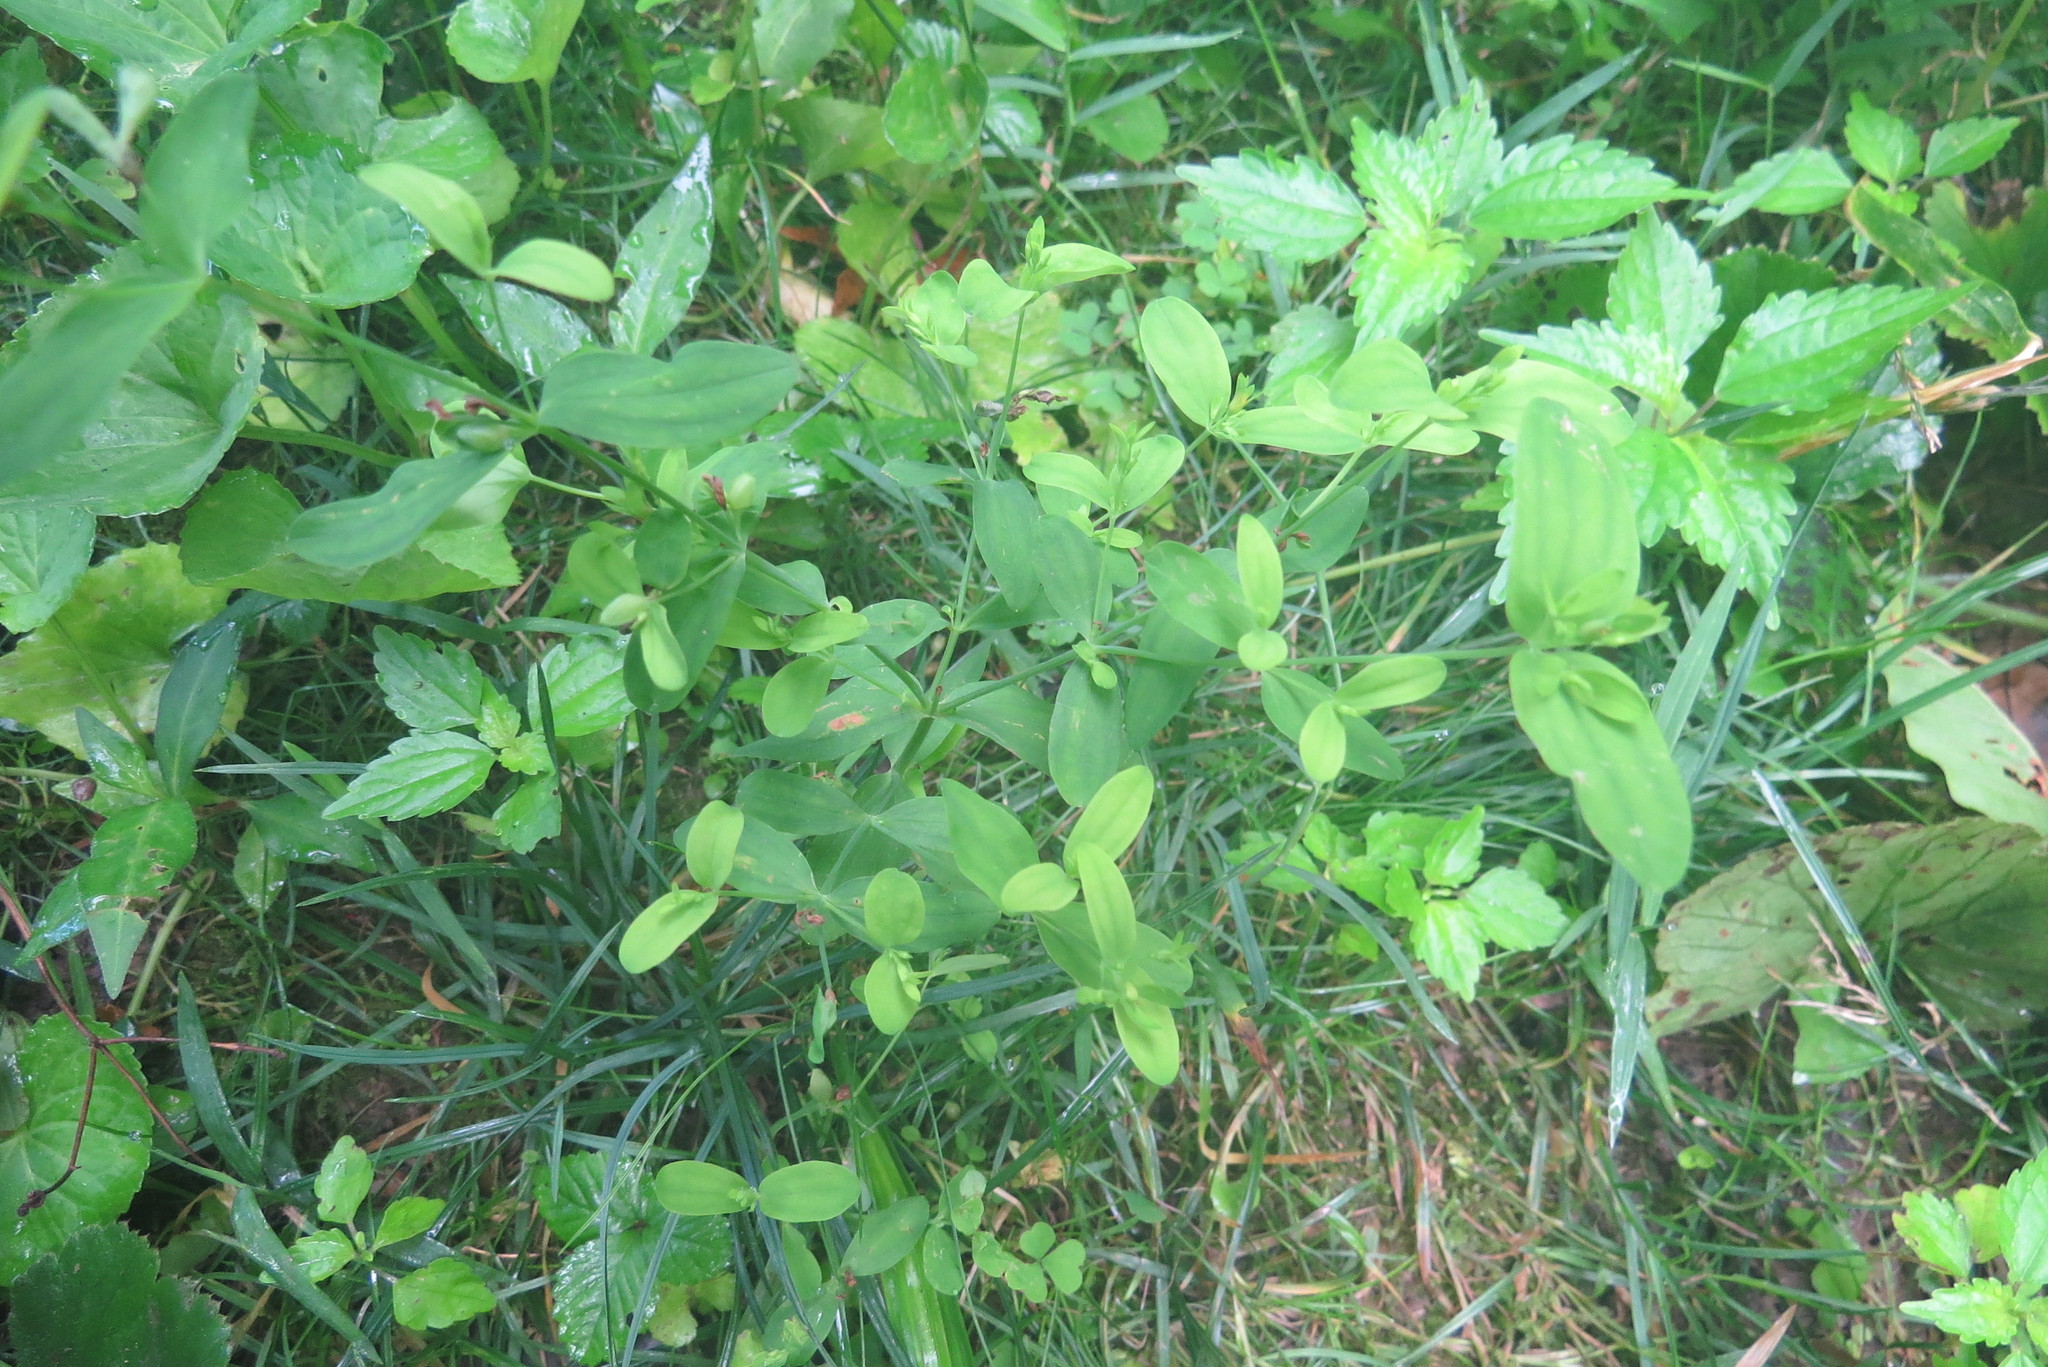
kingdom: Plantae
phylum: Tracheophyta
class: Magnoliopsida
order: Malpighiales
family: Hypericaceae
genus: Hypericum
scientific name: Hypericum mutilum
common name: Dwarf st. john's-wort
